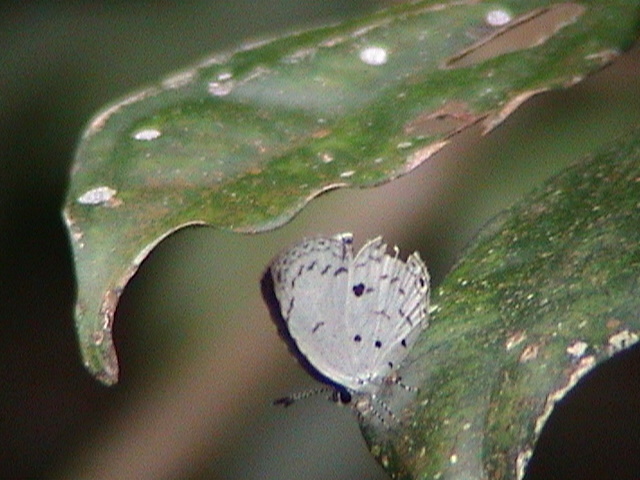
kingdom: Animalia
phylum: Arthropoda
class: Insecta
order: Lepidoptera
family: Lycaenidae
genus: Neopithecops
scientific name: Neopithecops zalmora
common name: Quaker
